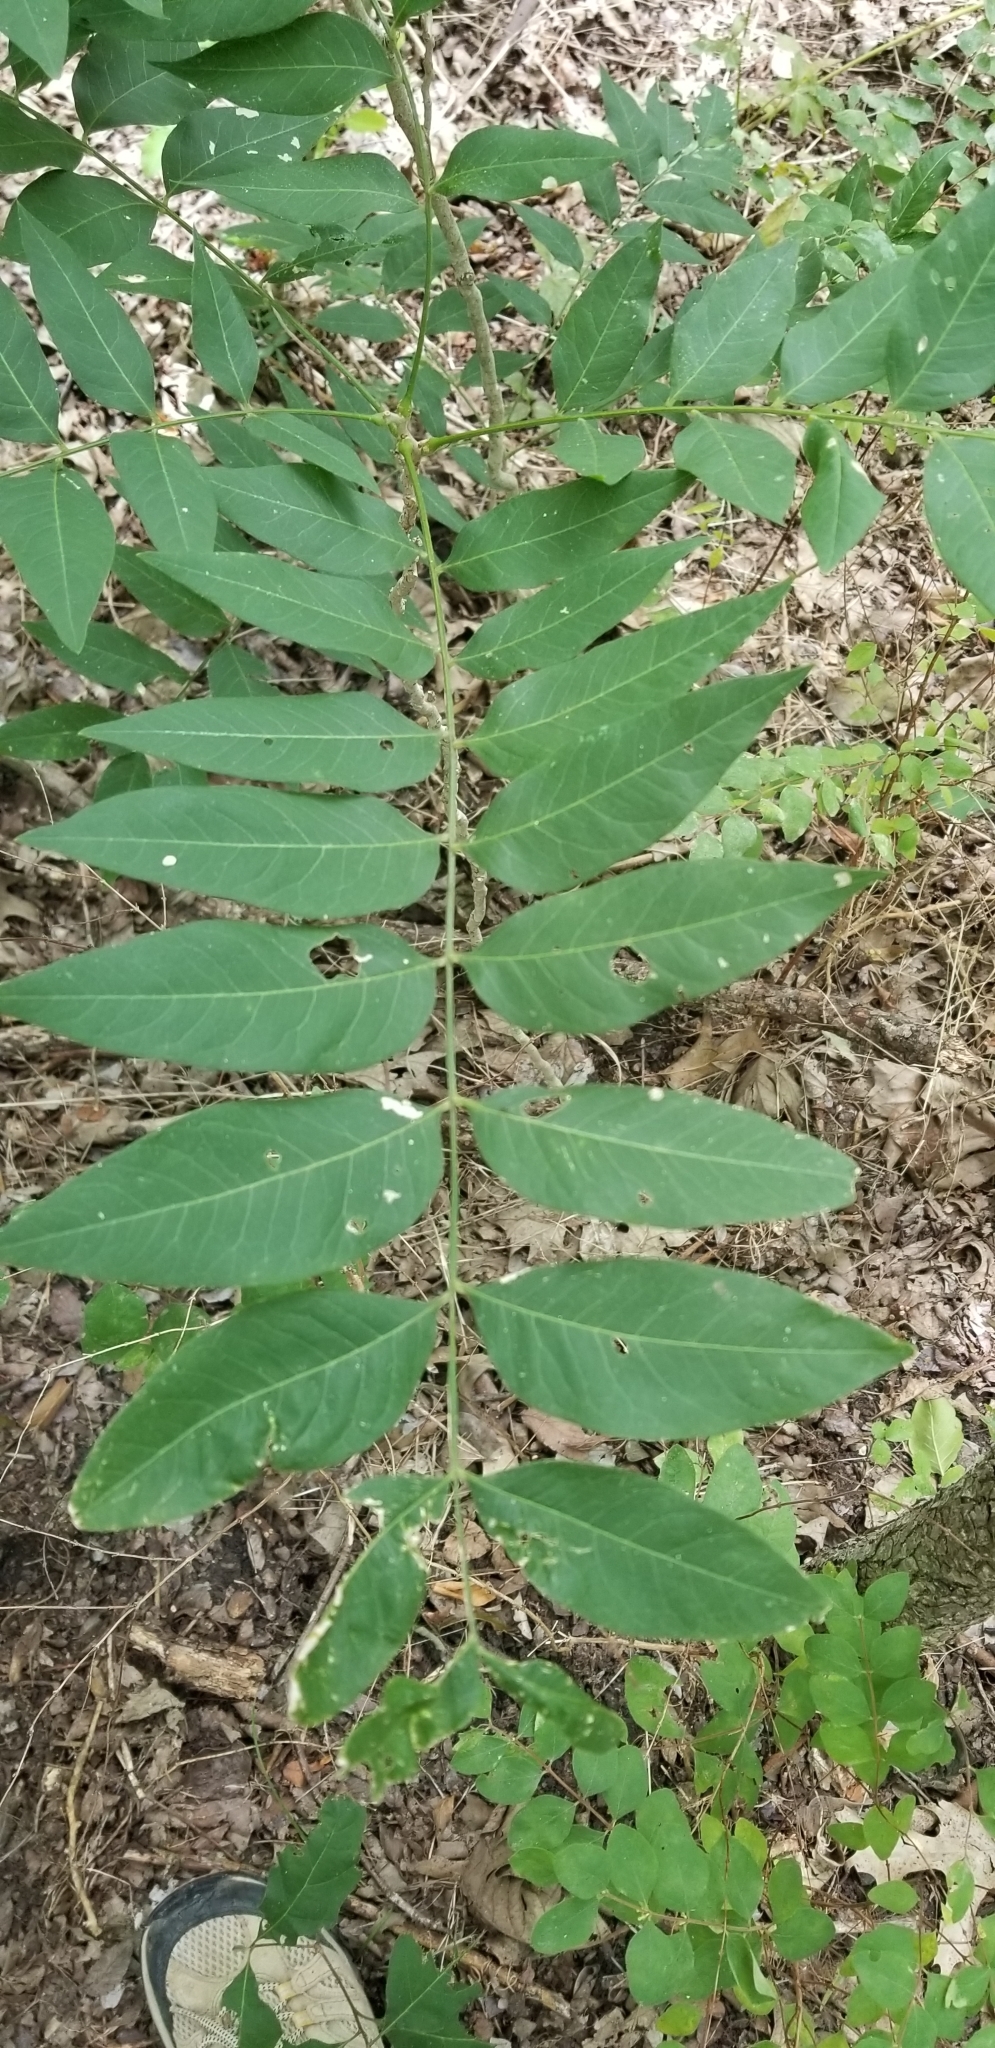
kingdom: Plantae
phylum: Tracheophyta
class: Magnoliopsida
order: Sapindales
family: Sapindaceae
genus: Sapindus
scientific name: Sapindus drummondii
